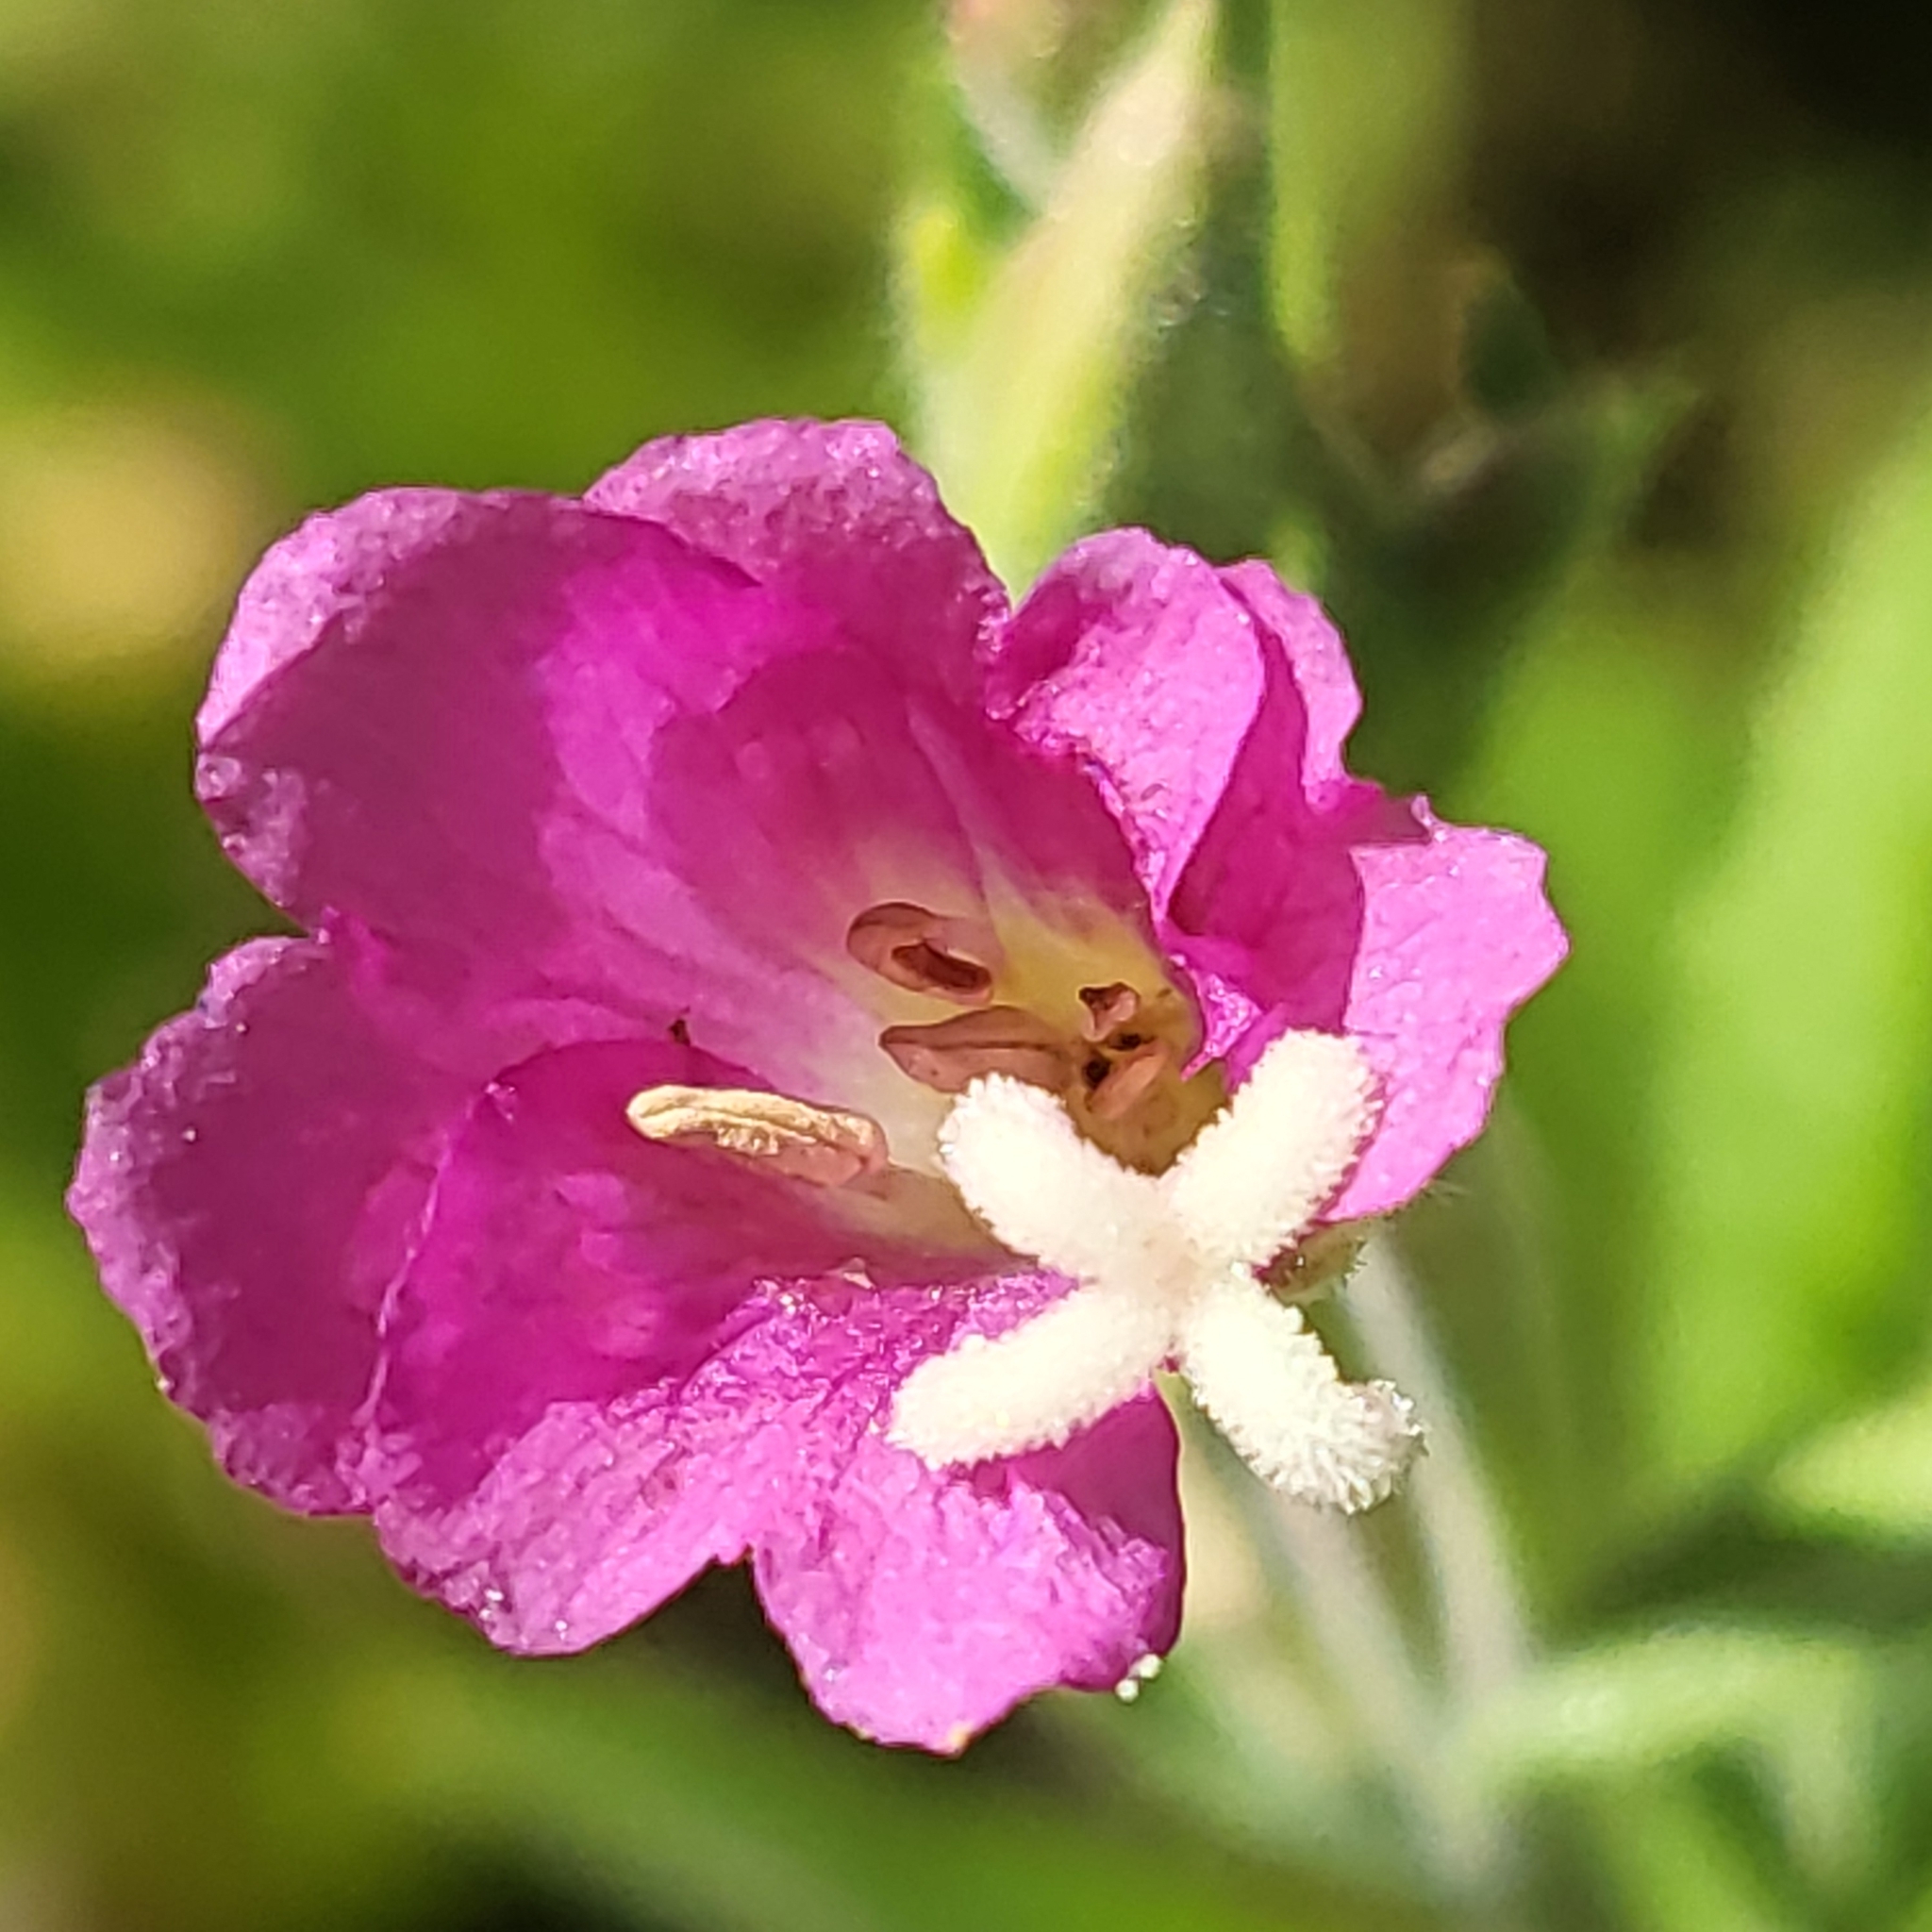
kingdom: Plantae
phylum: Tracheophyta
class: Magnoliopsida
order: Myrtales
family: Onagraceae
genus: Epilobium
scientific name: Epilobium hirsutum
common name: Great willowherb
